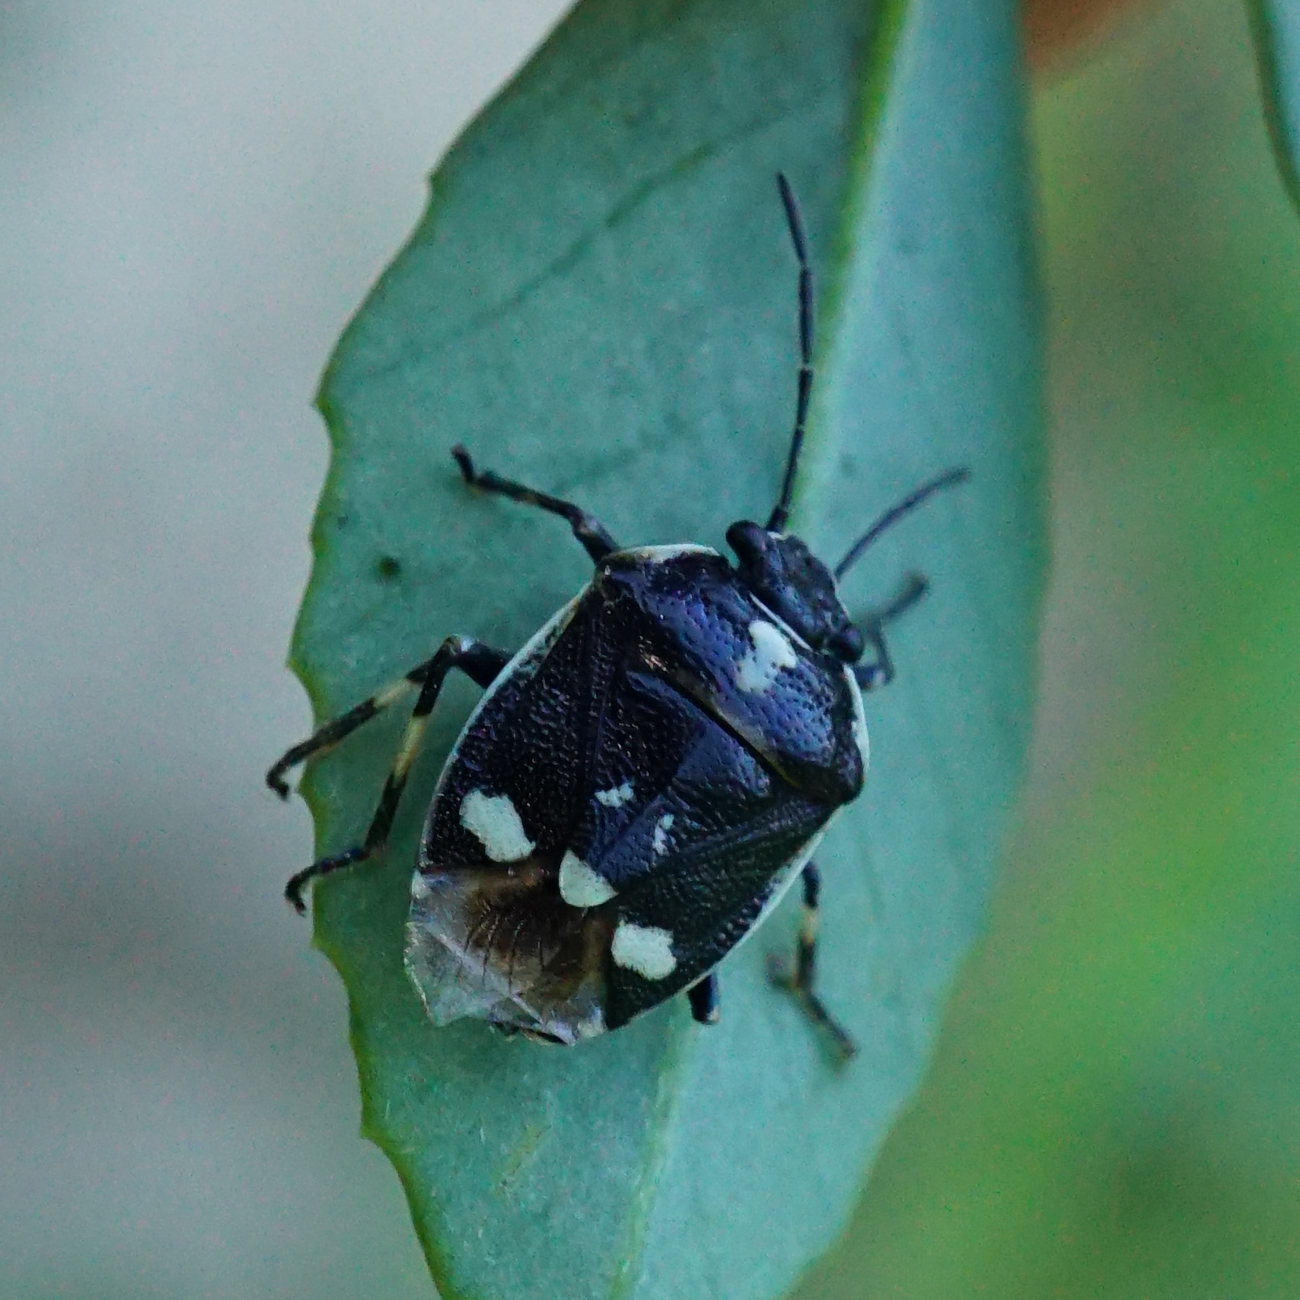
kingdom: Animalia
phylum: Arthropoda
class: Insecta
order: Hemiptera
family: Pentatomidae
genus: Eurydema
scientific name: Eurydema oleracea
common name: Cabbage bug
